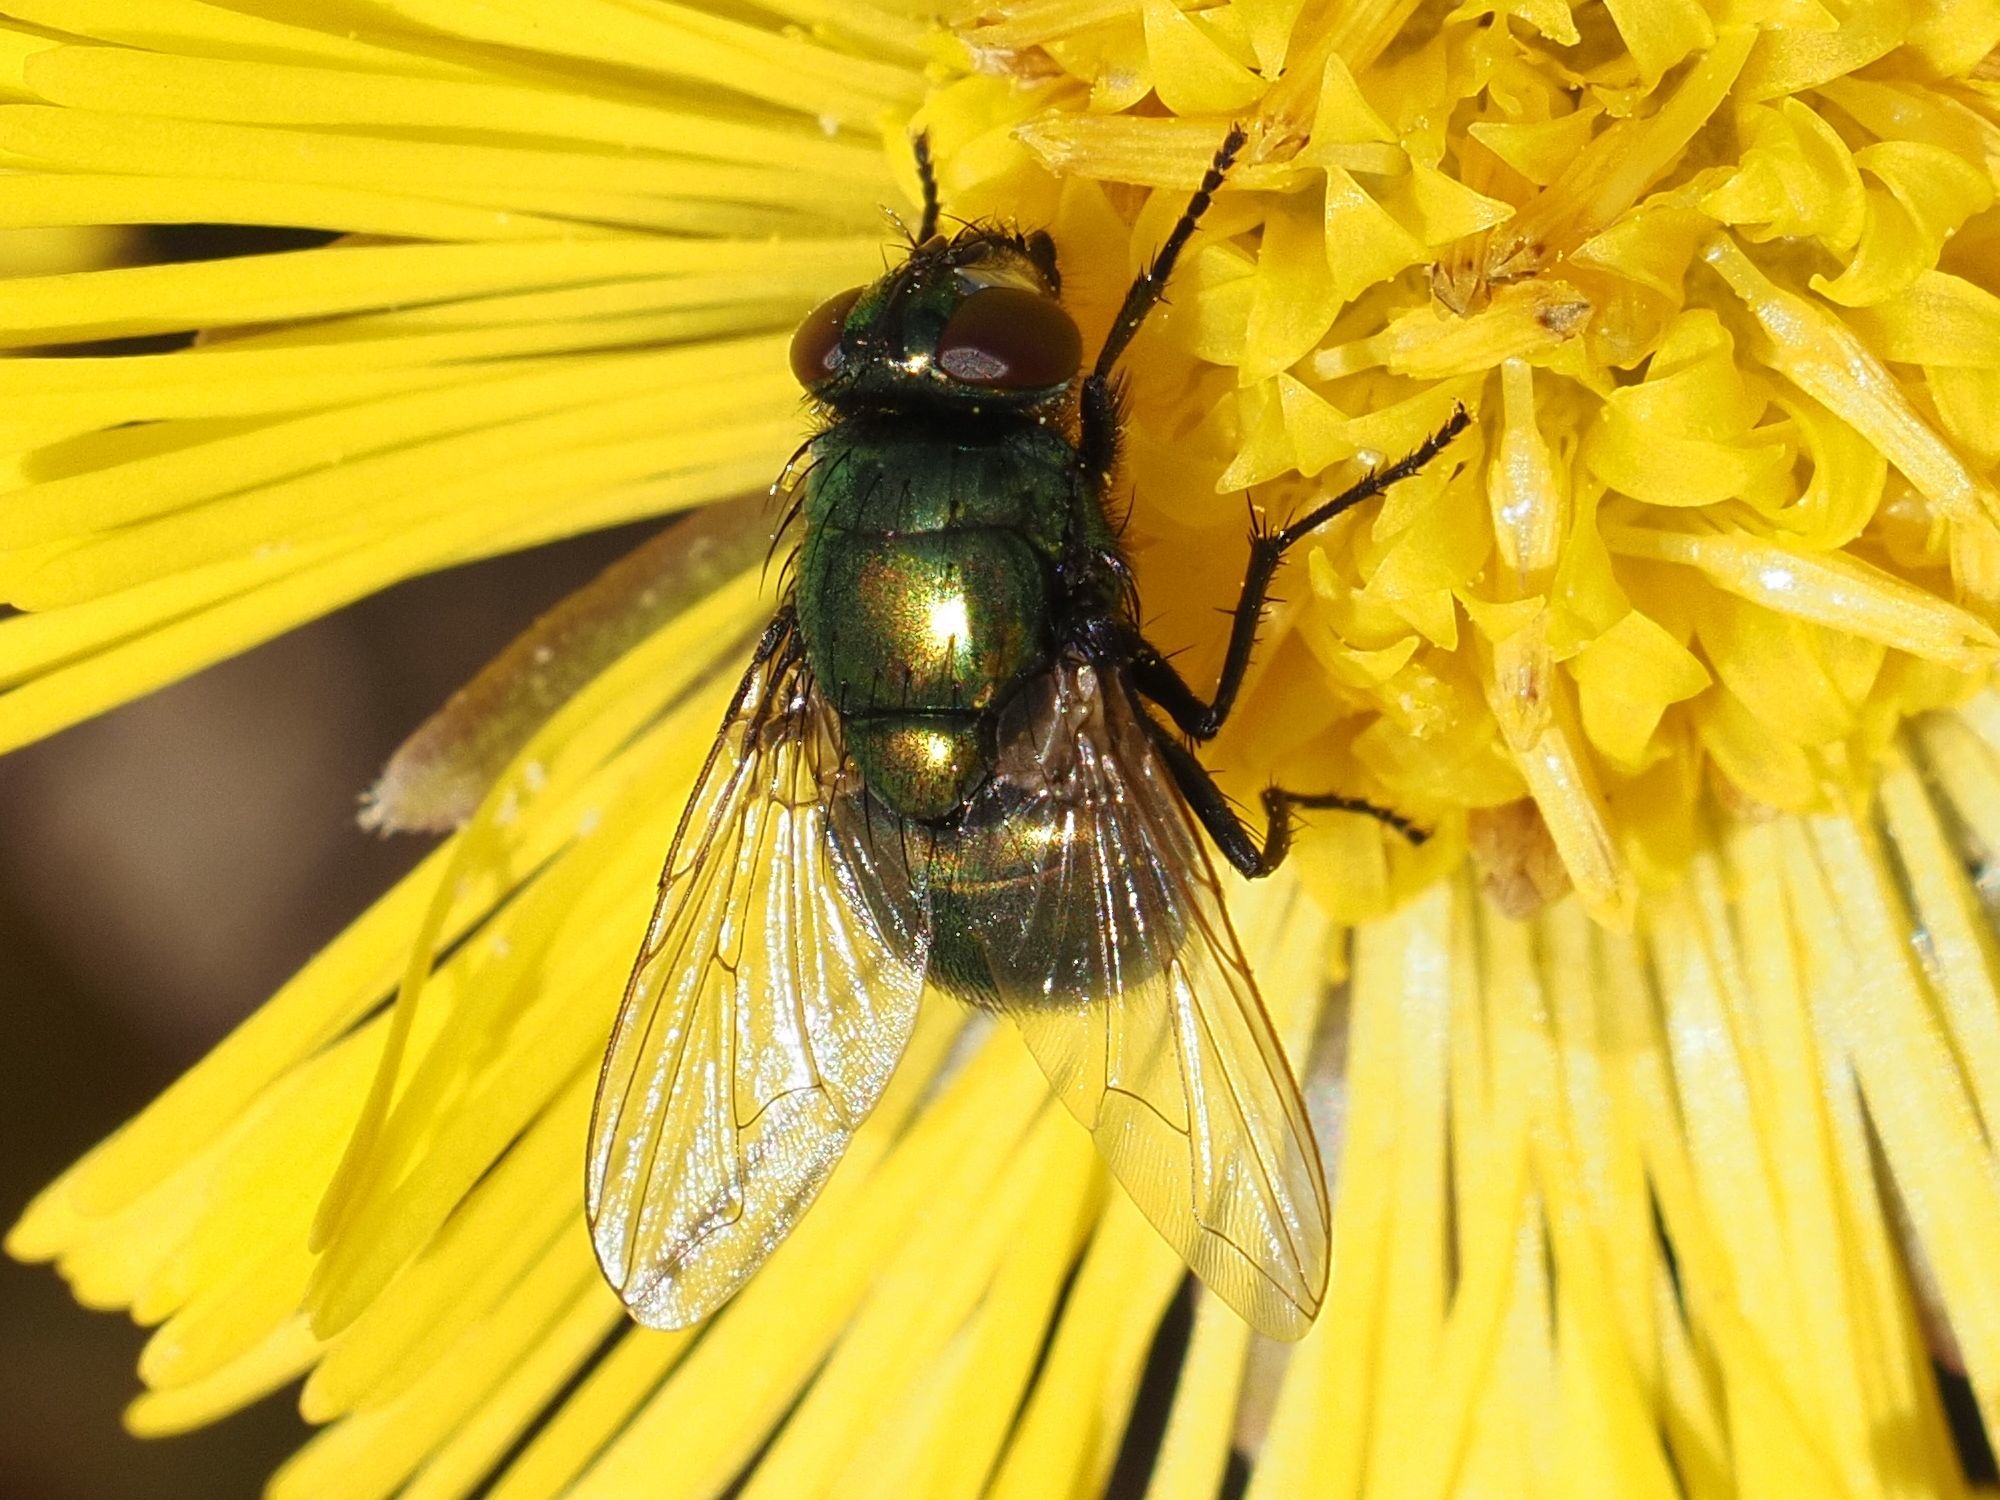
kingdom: Animalia
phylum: Arthropoda
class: Insecta
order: Diptera
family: Muscidae
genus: Neomyia
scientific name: Neomyia cornicina
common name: House fly
